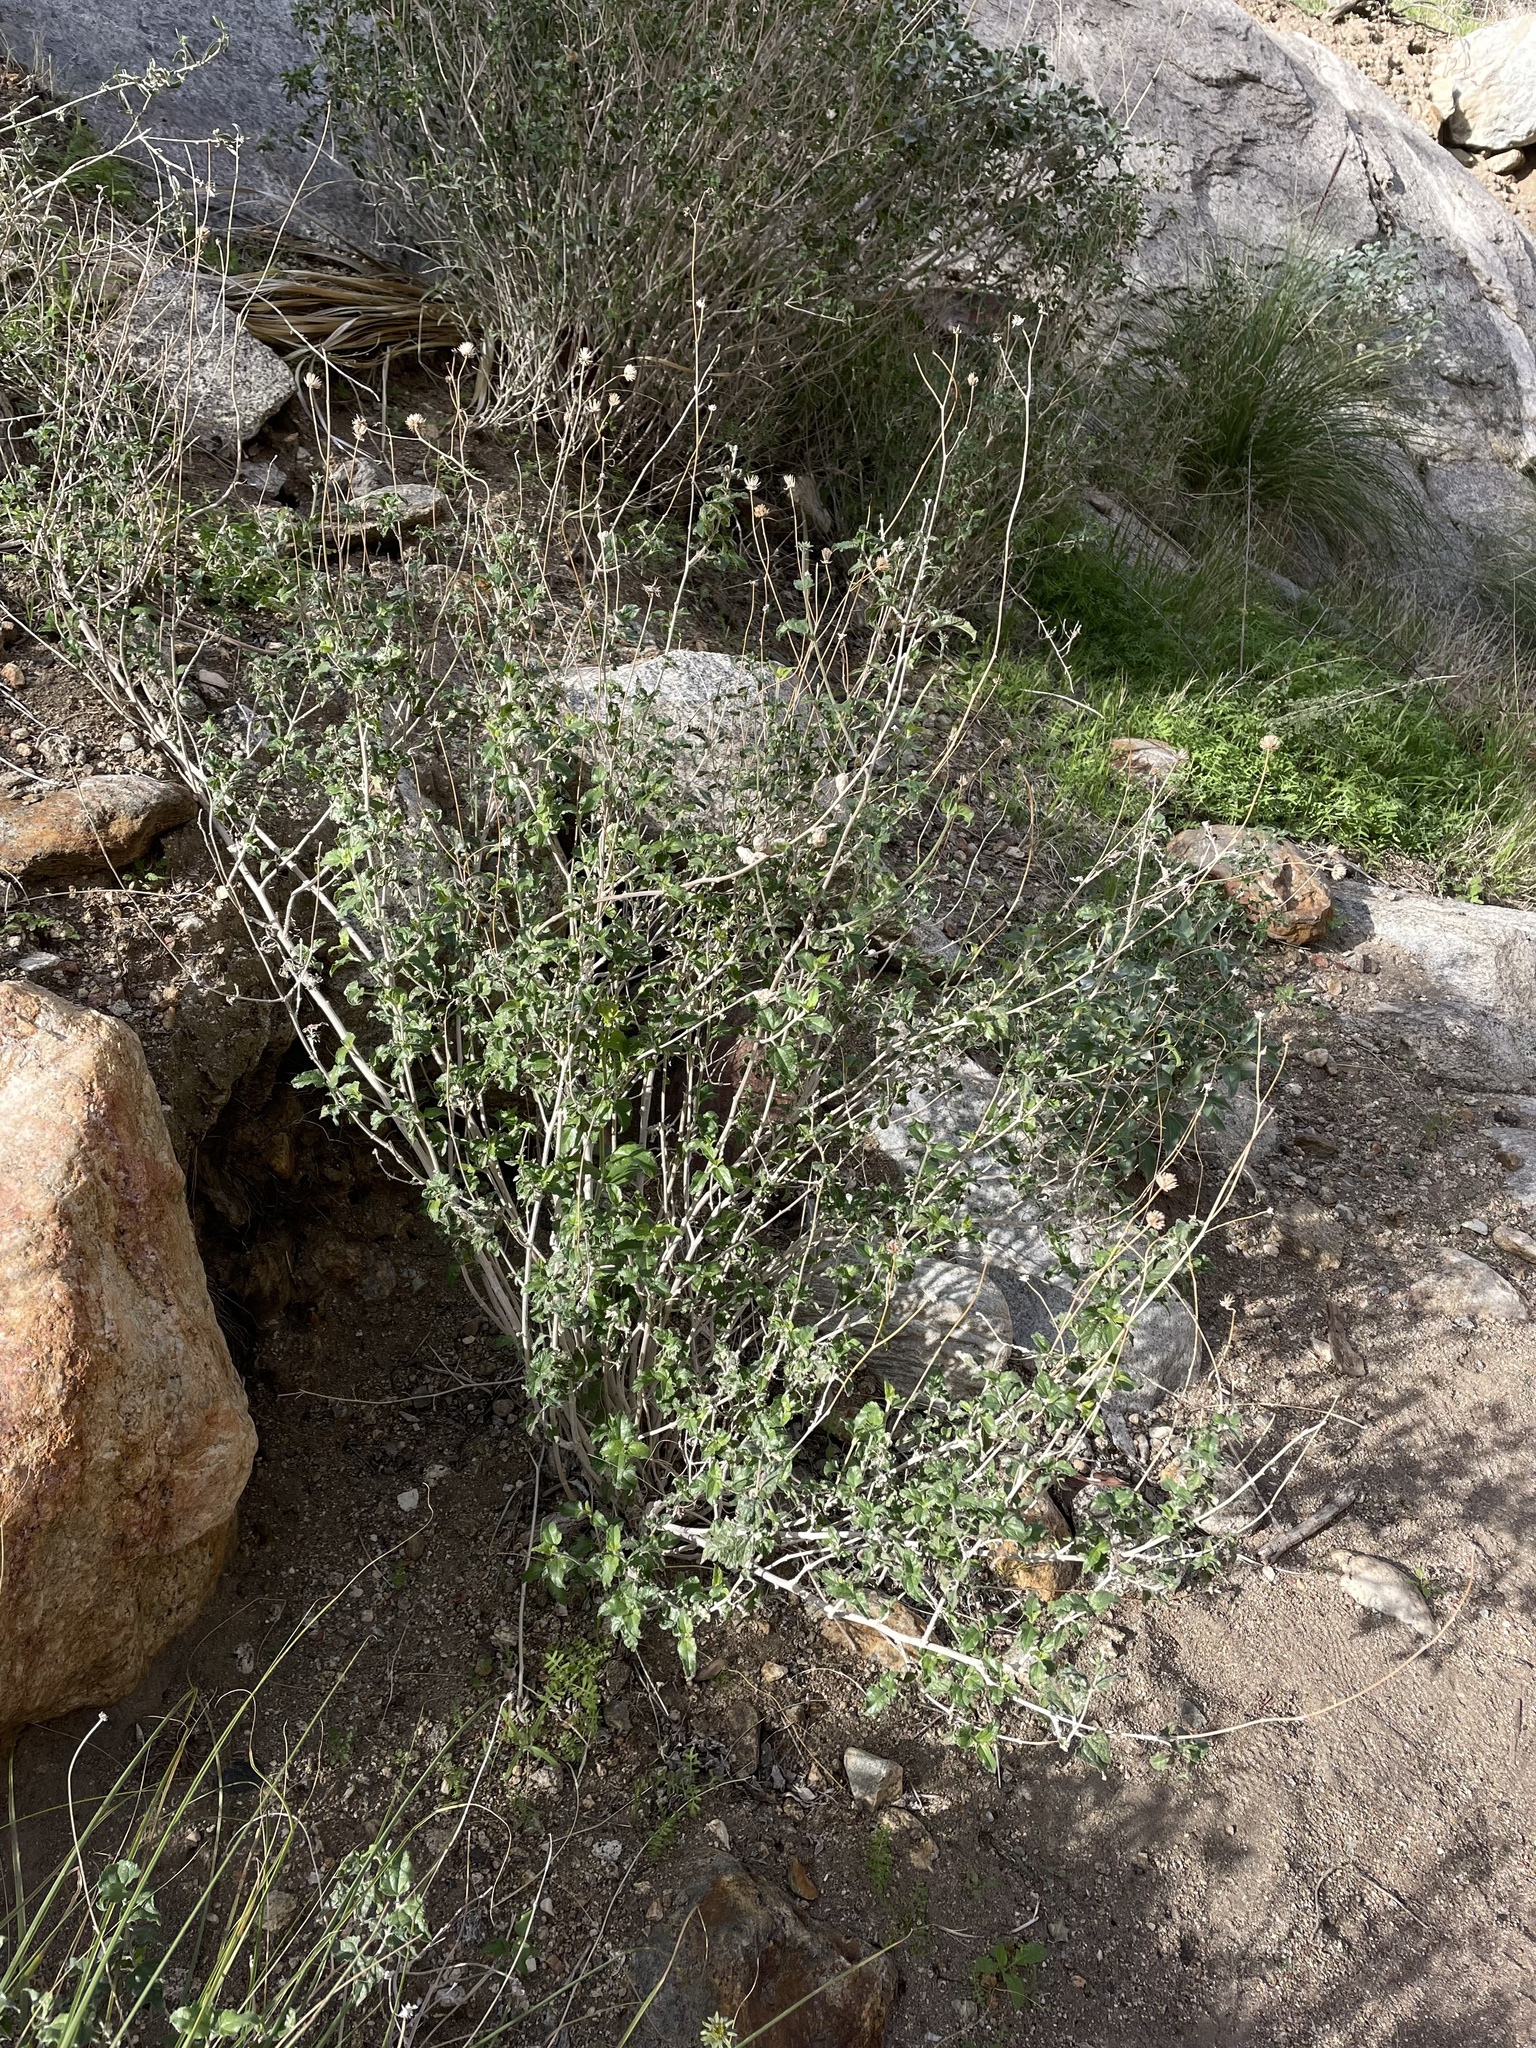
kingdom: Animalia
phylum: Arthropoda
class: Insecta
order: Diptera
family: Tephritidae
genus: Procecidochares
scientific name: Procecidochares stonei
